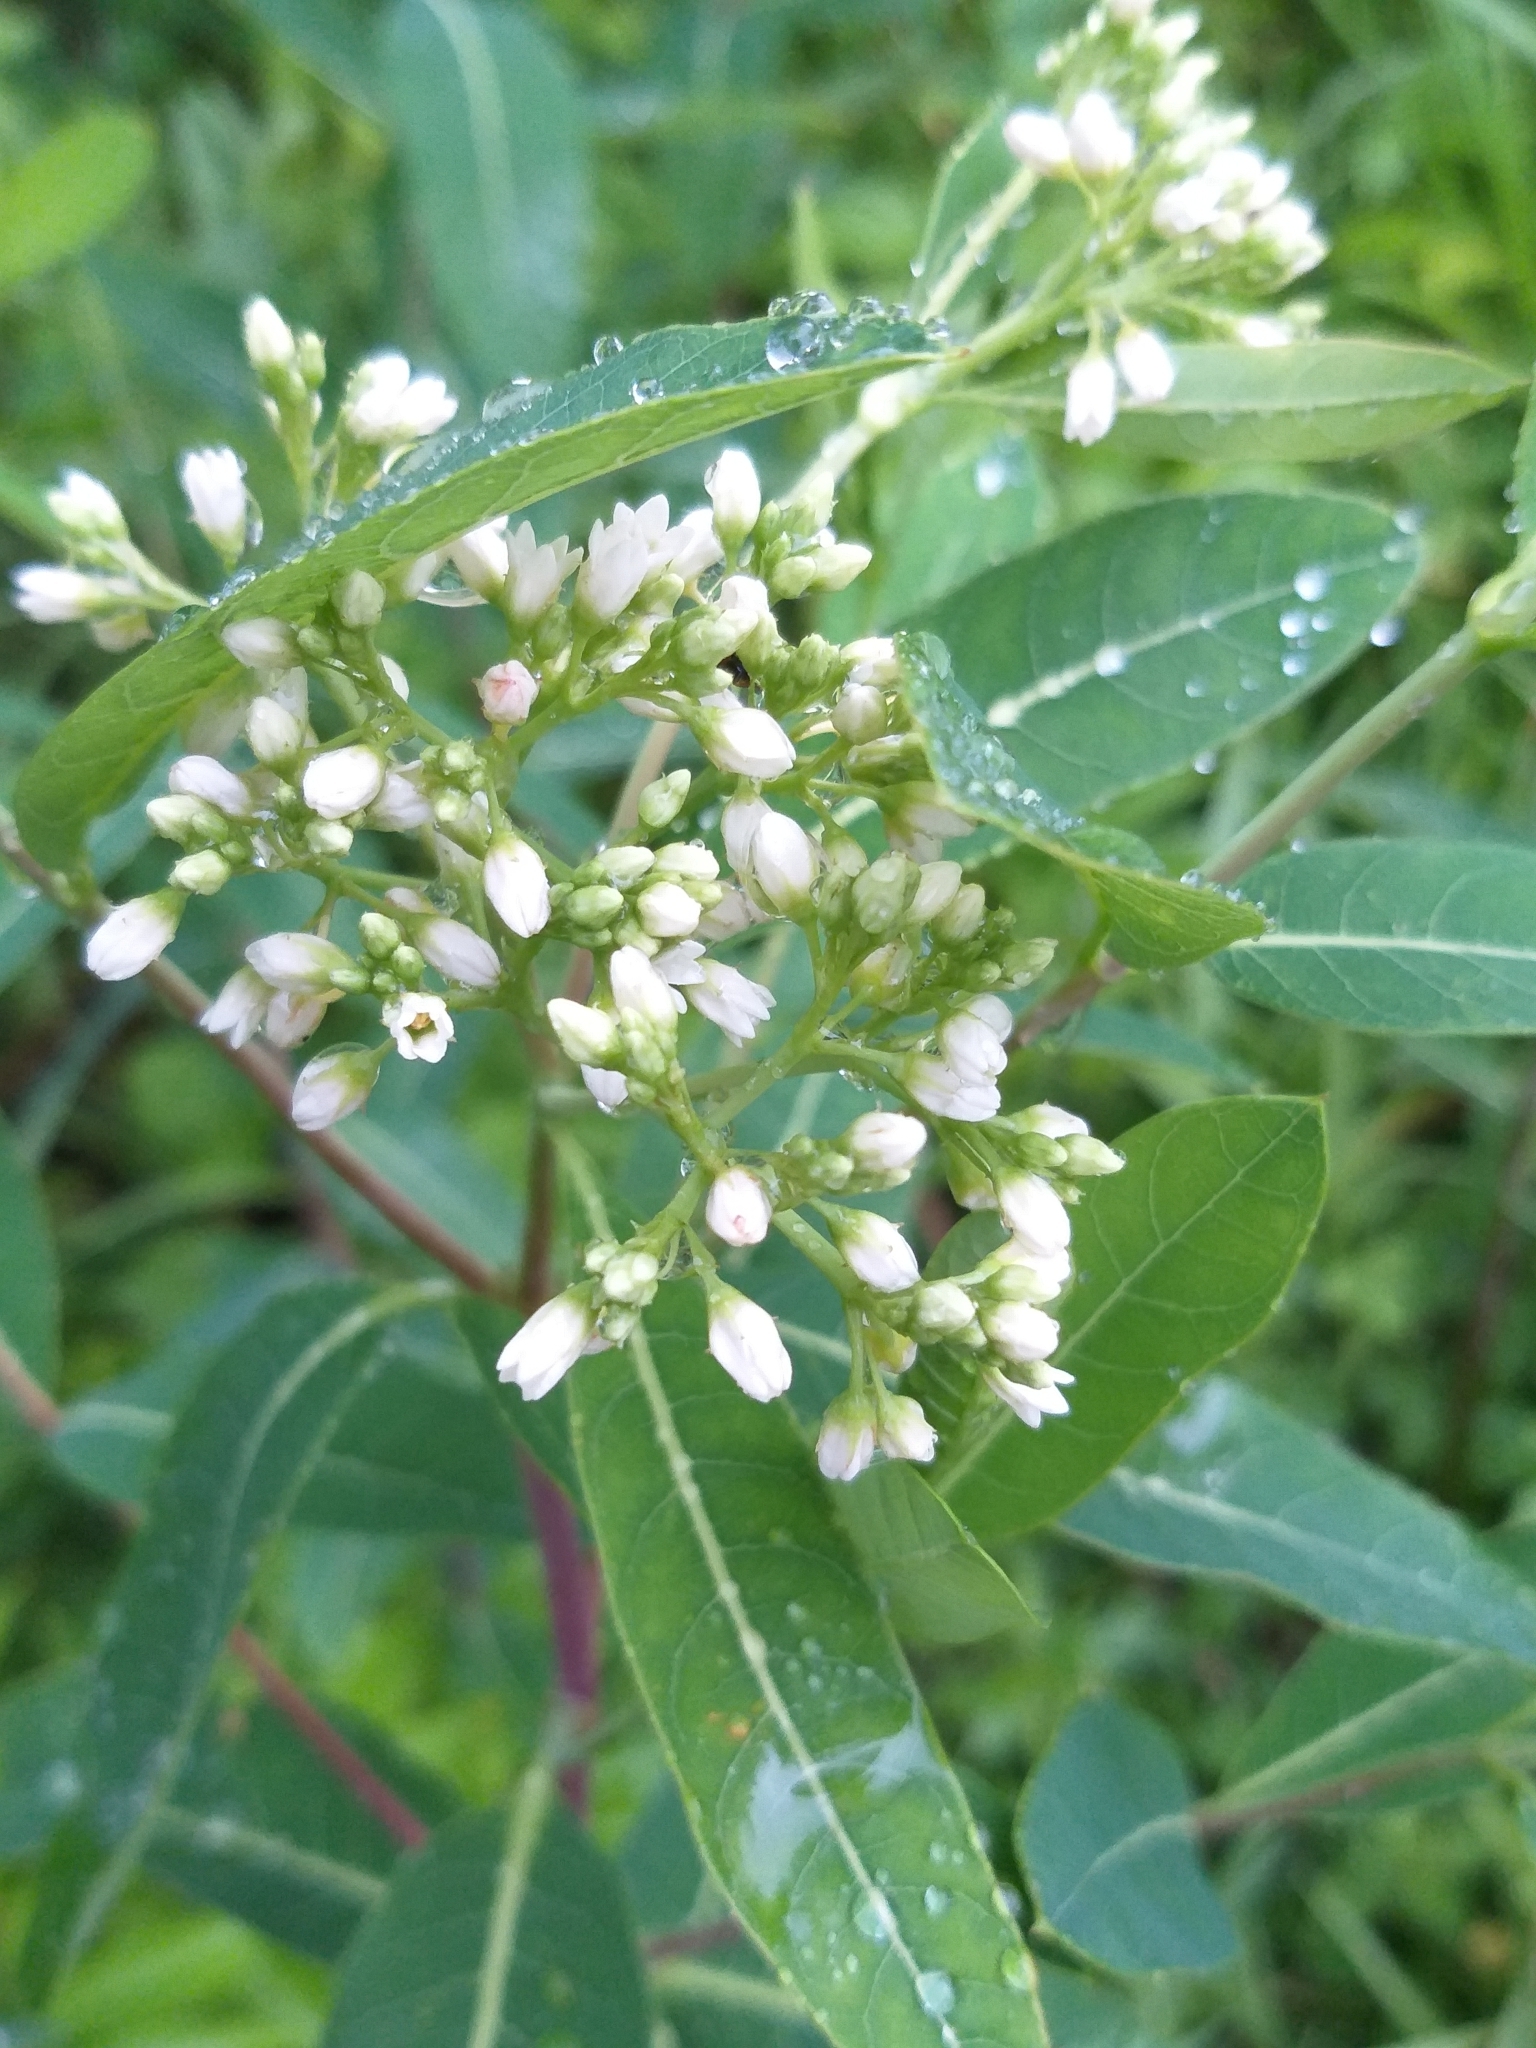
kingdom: Plantae
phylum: Tracheophyta
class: Magnoliopsida
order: Gentianales
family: Apocynaceae
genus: Apocynum
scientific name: Apocynum cannabinum
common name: Hemp dogbane
